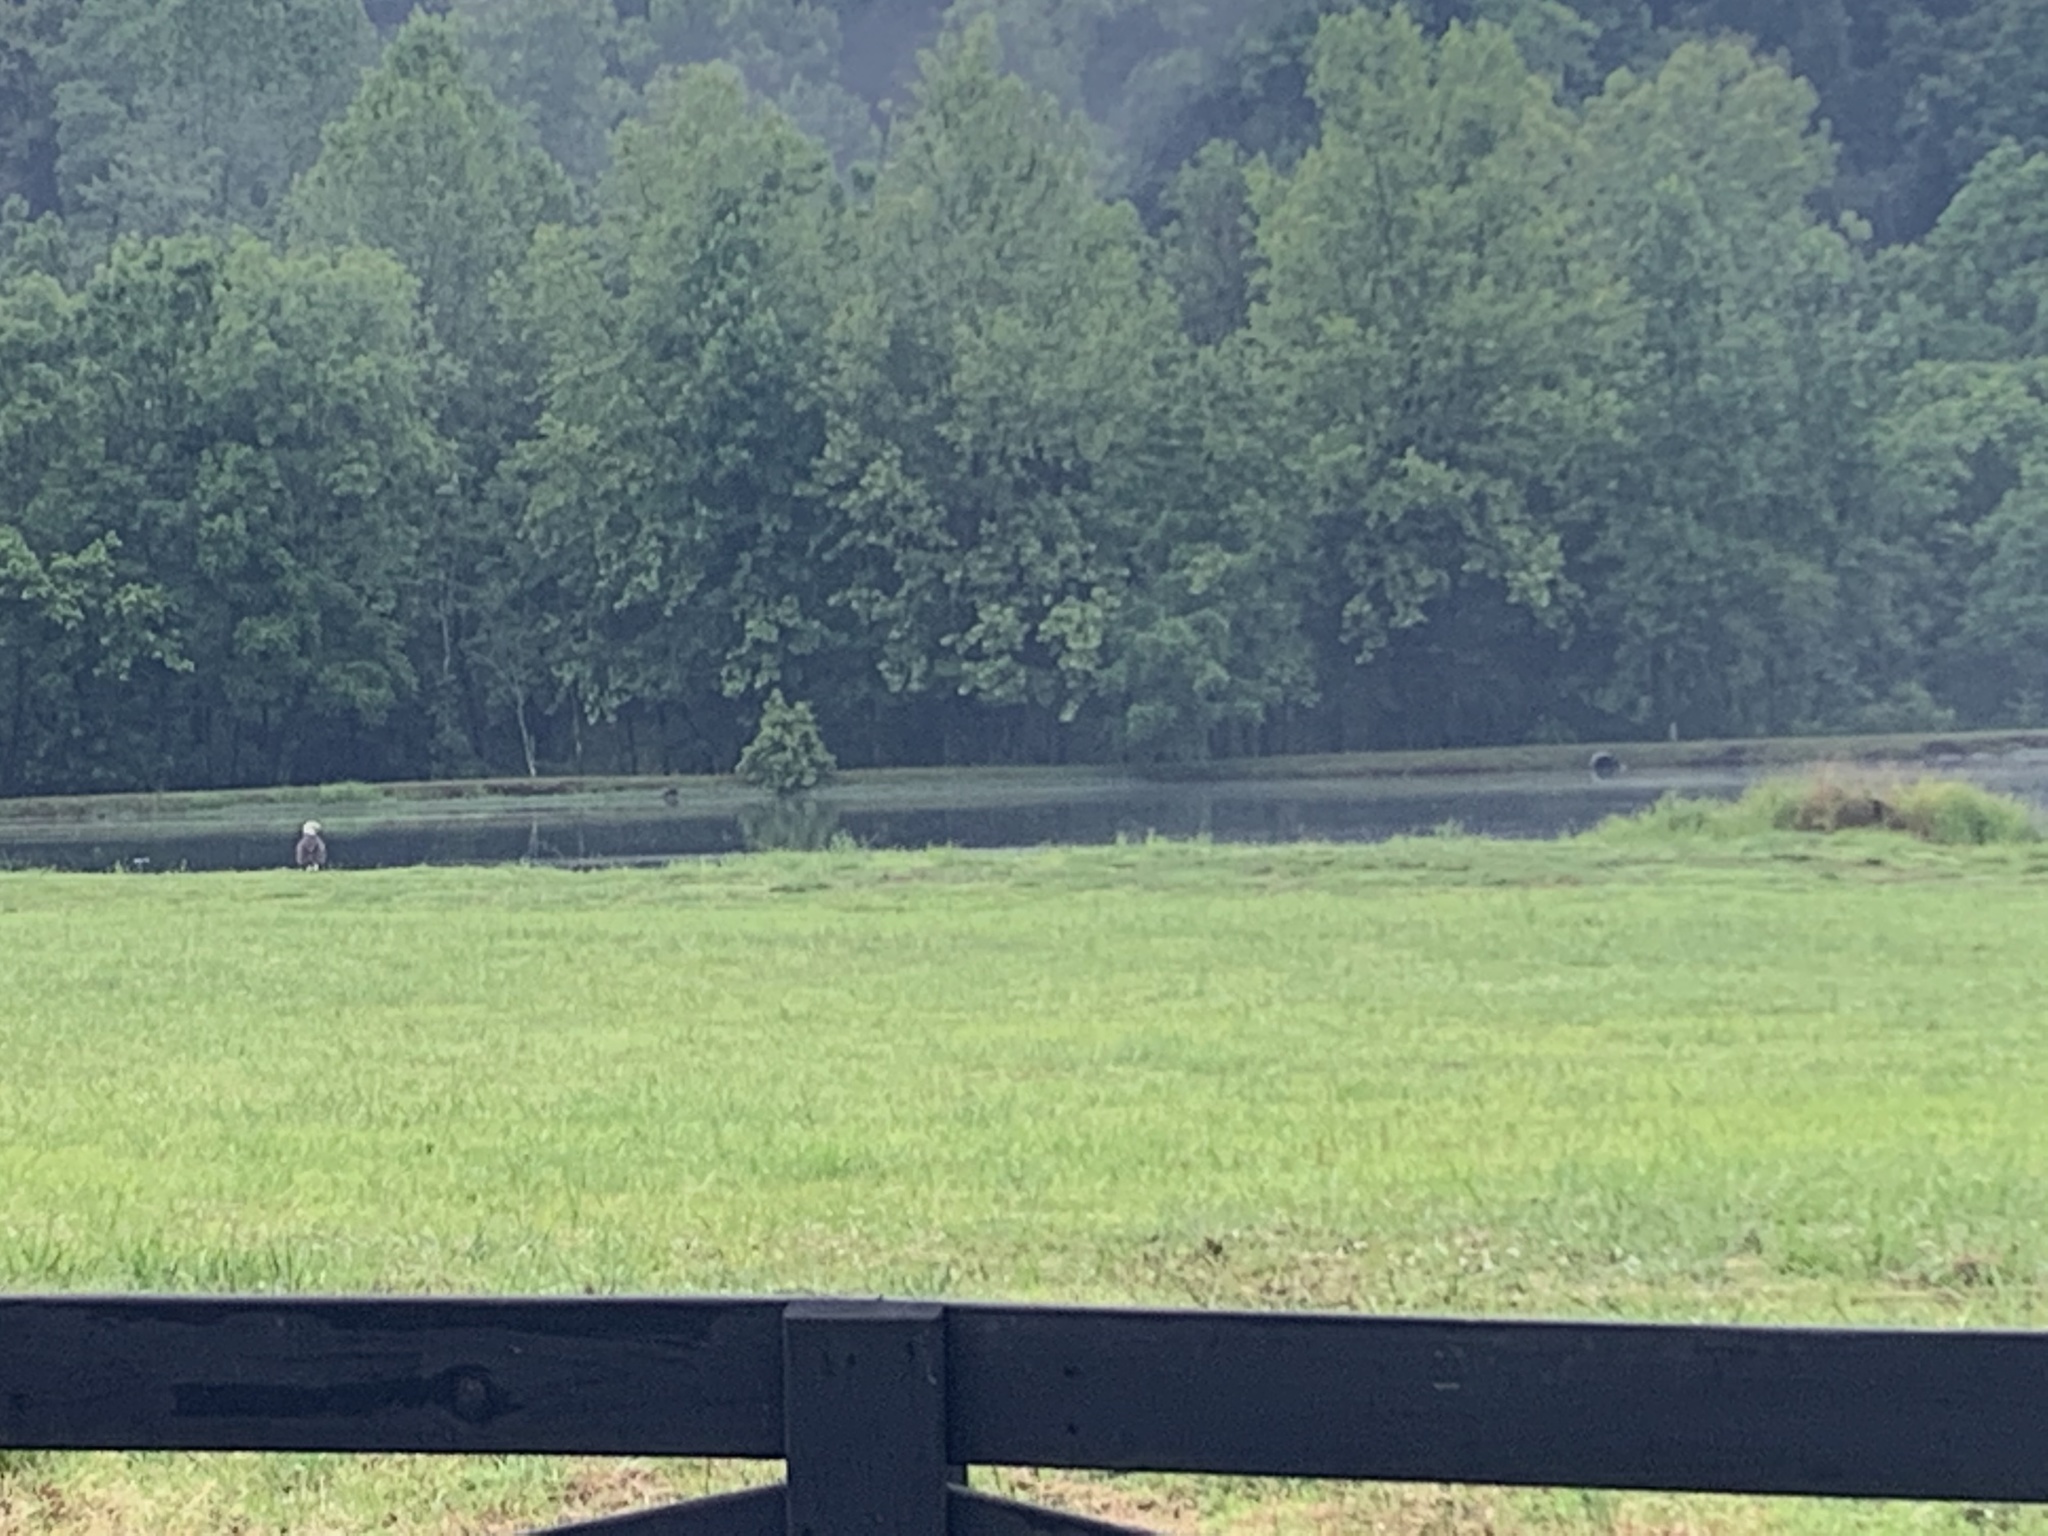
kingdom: Animalia
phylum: Chordata
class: Aves
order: Accipitriformes
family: Accipitridae
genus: Haliaeetus
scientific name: Haliaeetus leucocephalus
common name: Bald eagle
